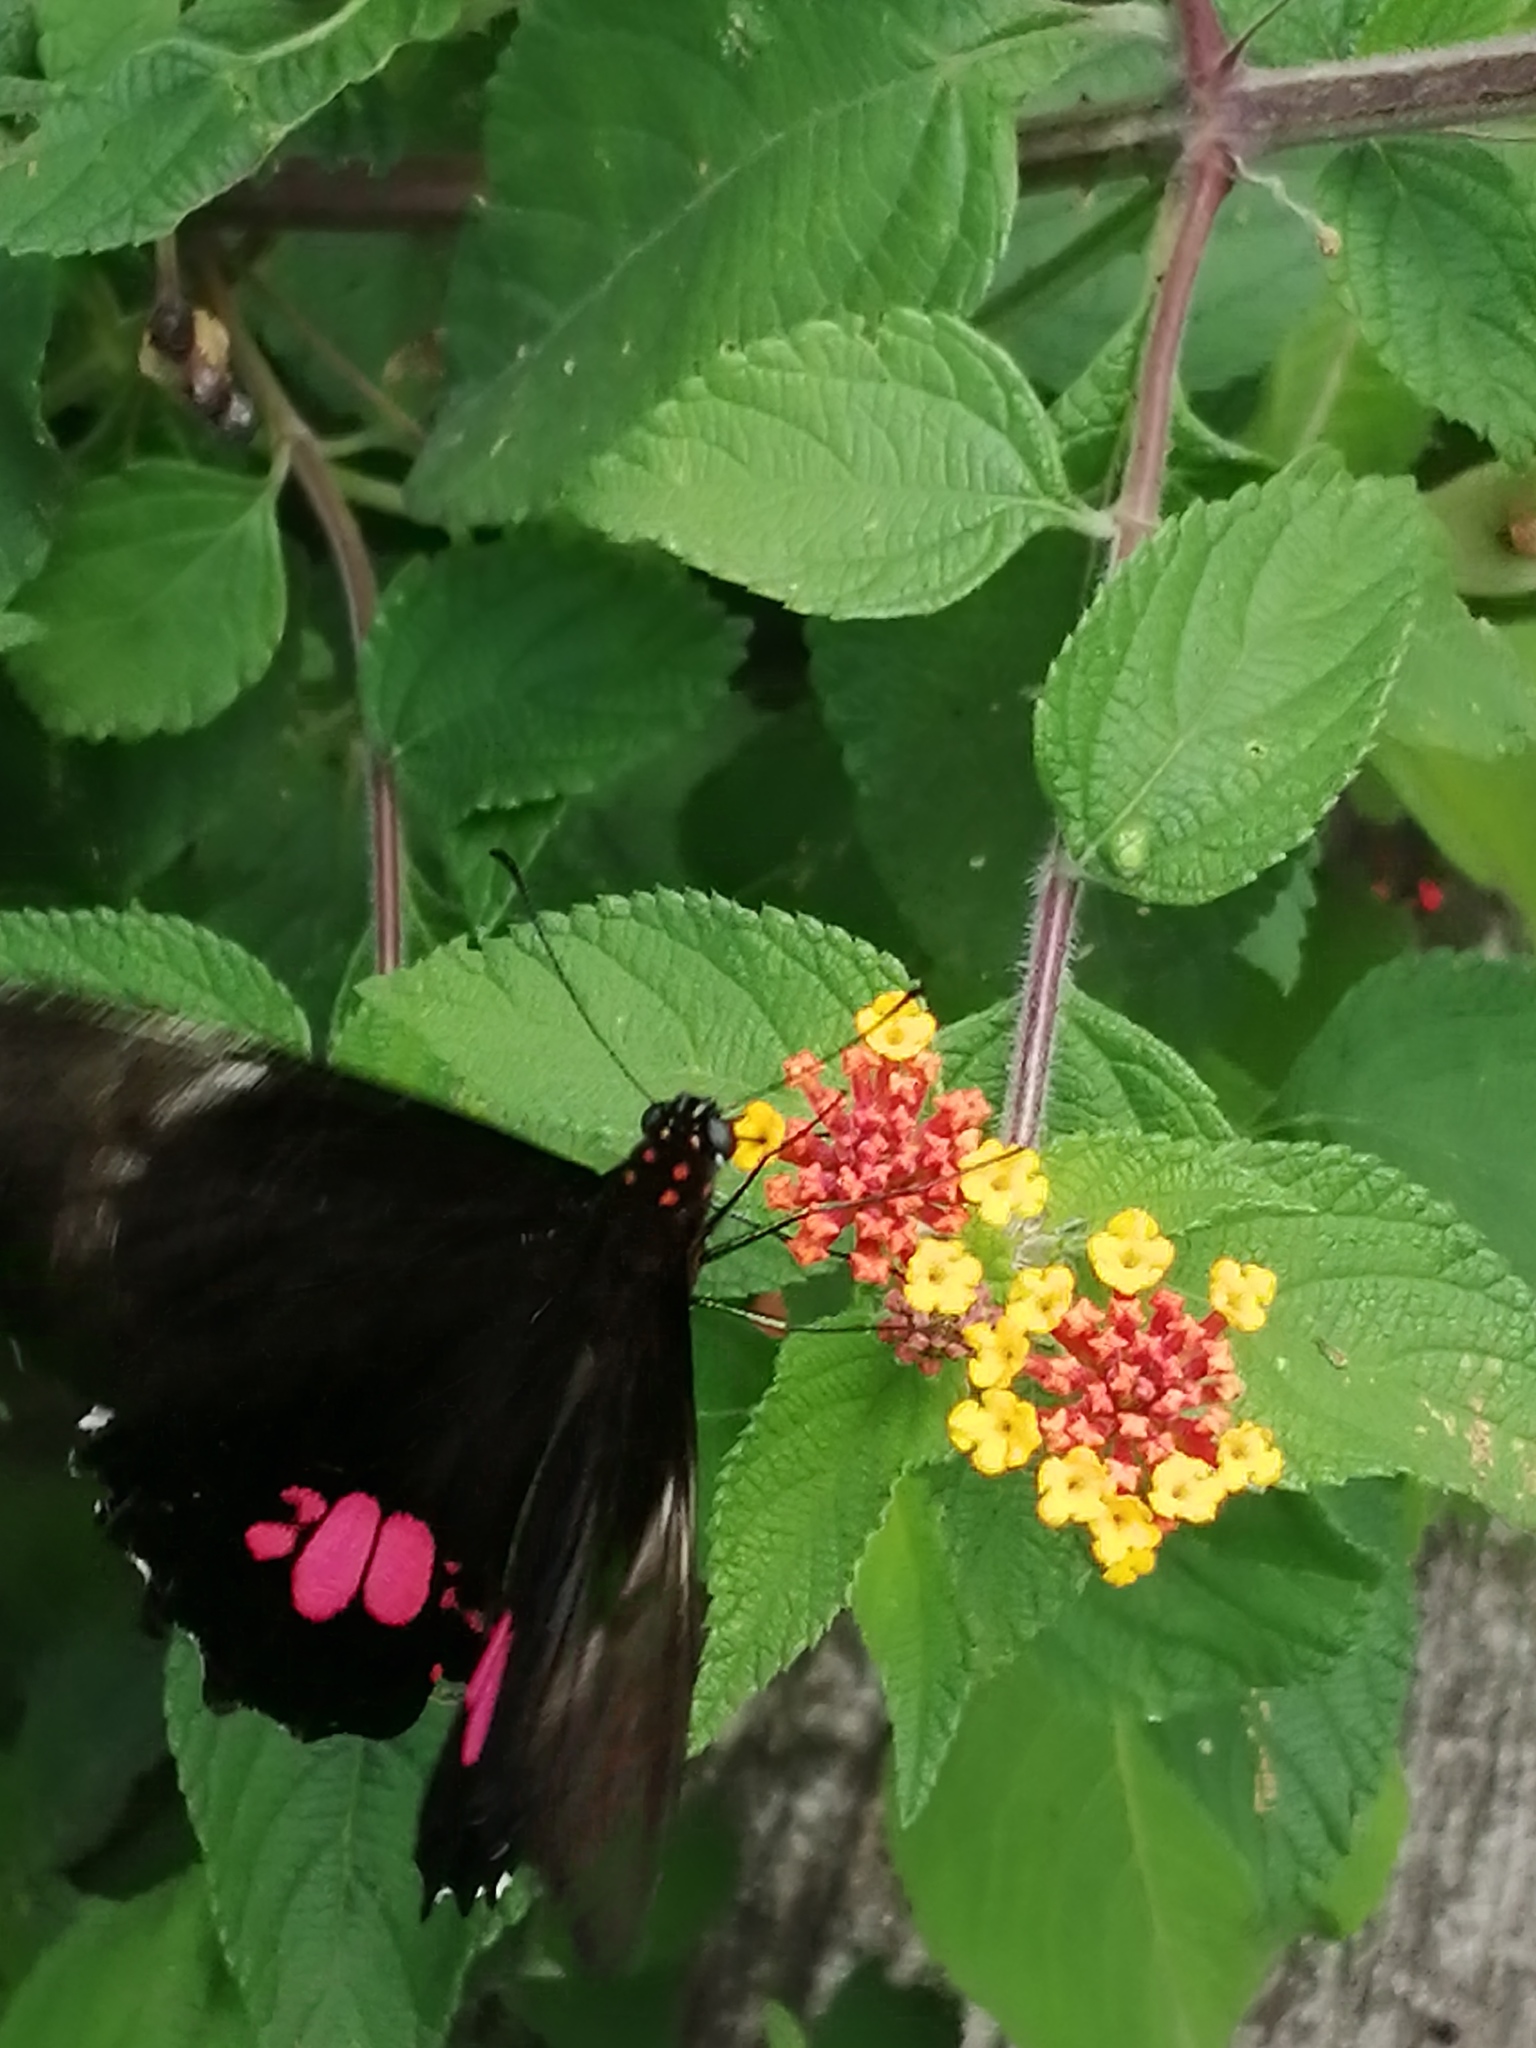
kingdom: Animalia
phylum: Arthropoda
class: Insecta
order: Lepidoptera
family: Papilionidae
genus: Papilio
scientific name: Papilio anchisiades
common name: Idaes swallowtail
